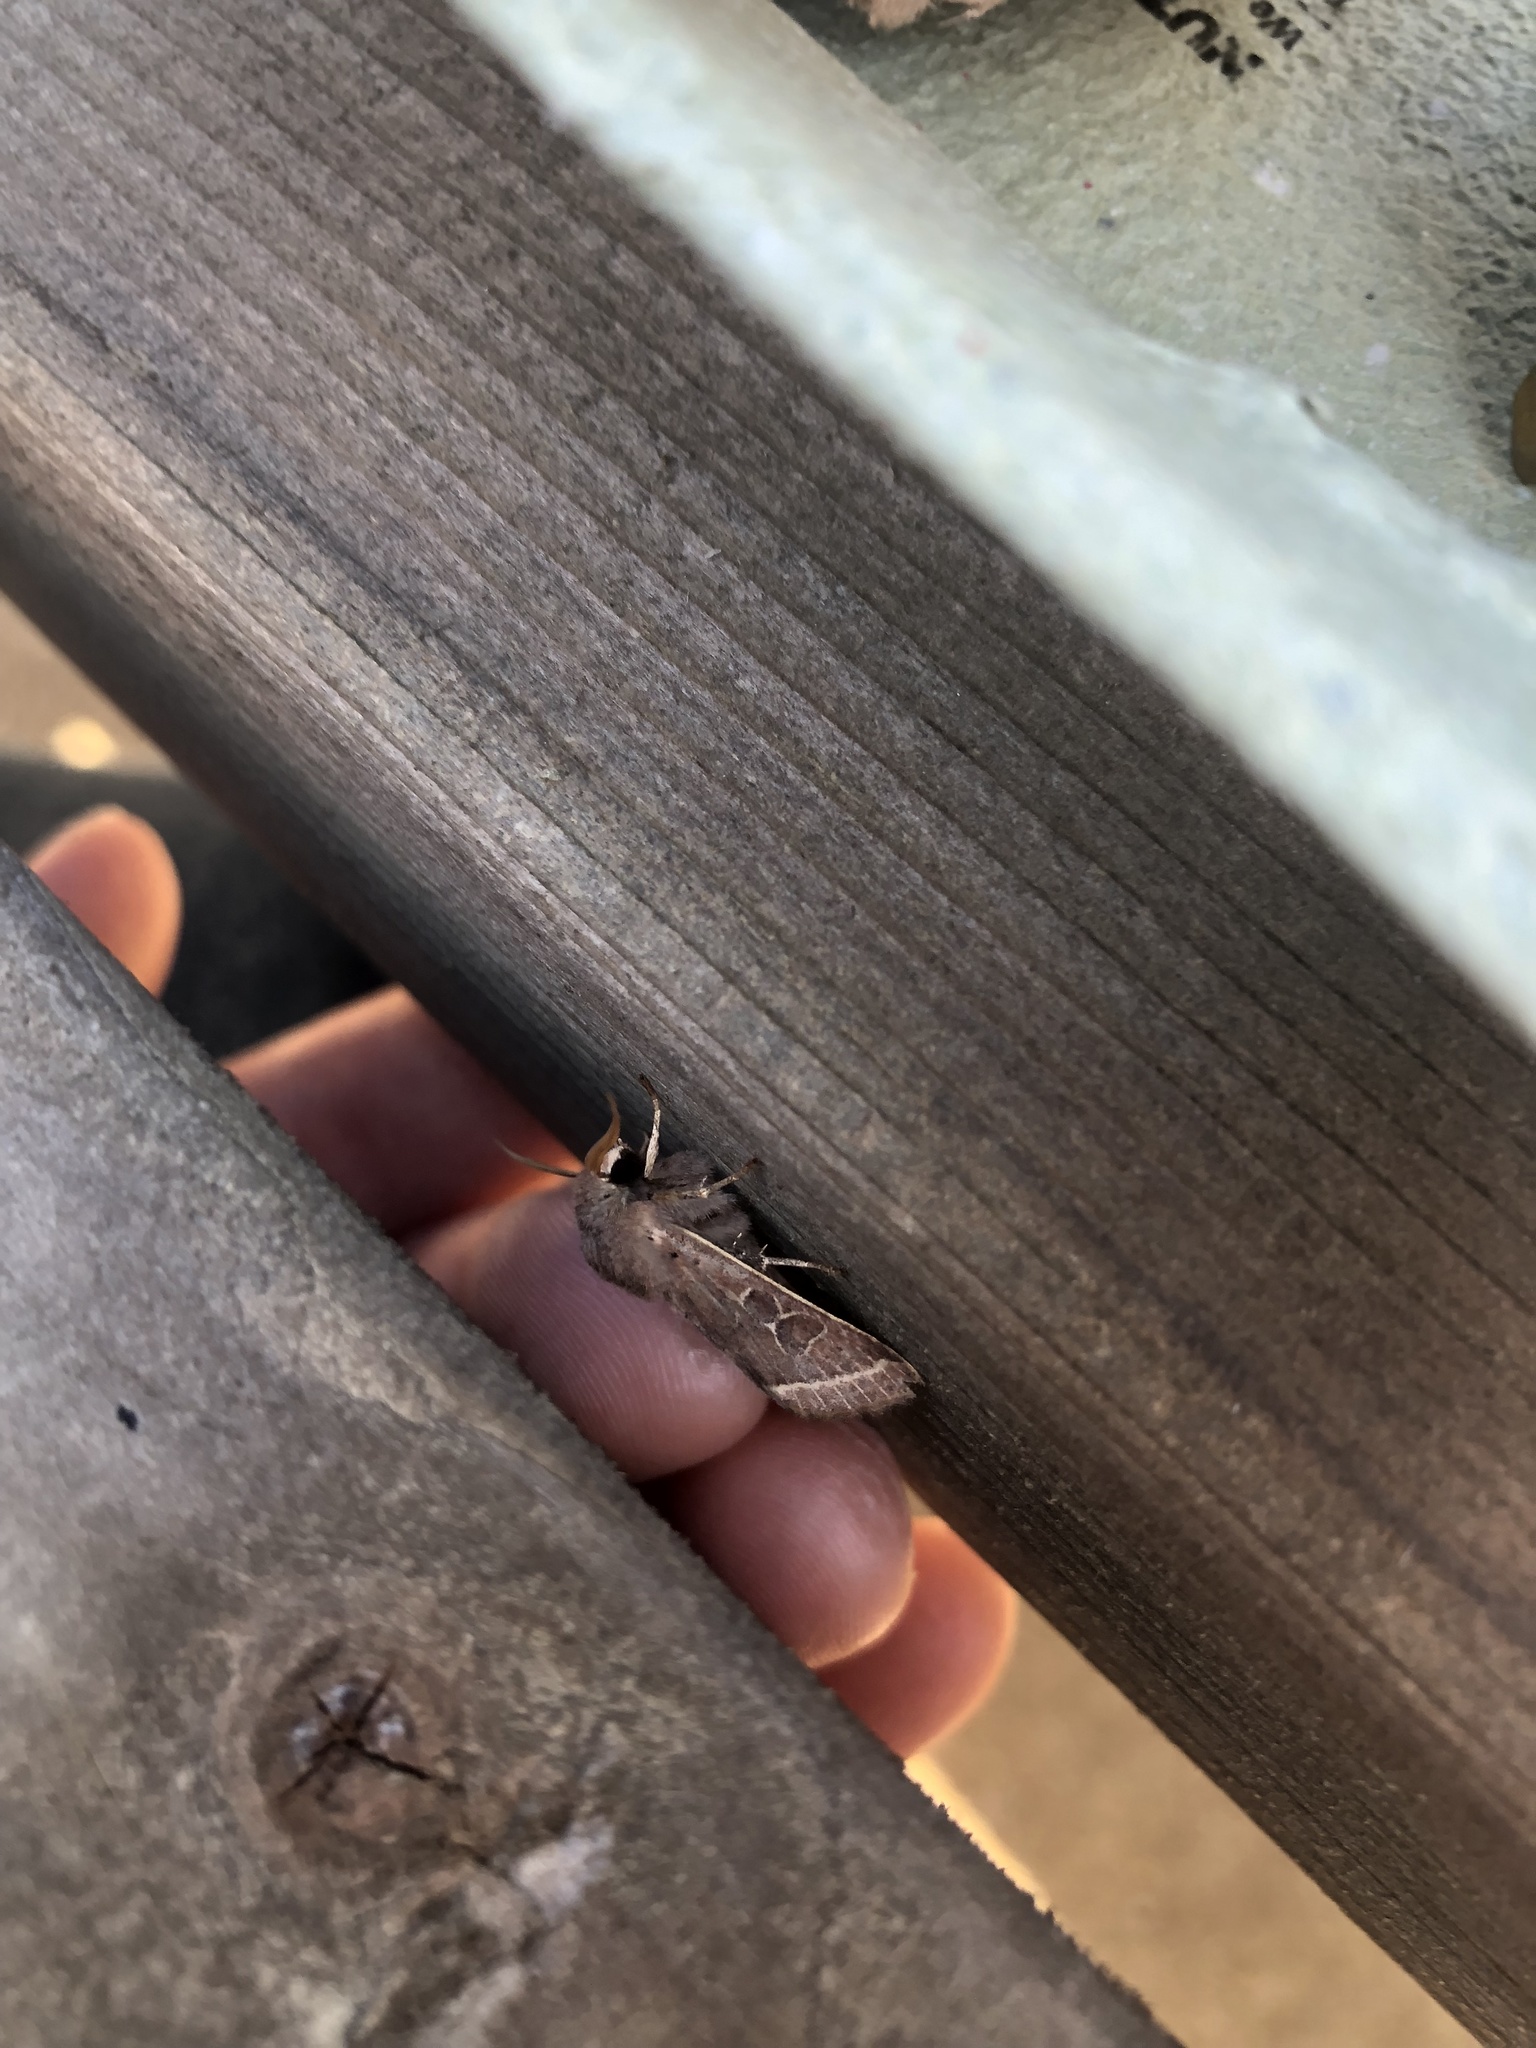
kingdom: Animalia
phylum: Arthropoda
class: Insecta
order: Lepidoptera
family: Noctuidae
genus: Orthosia
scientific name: Orthosia cerasi
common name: Common quaker
